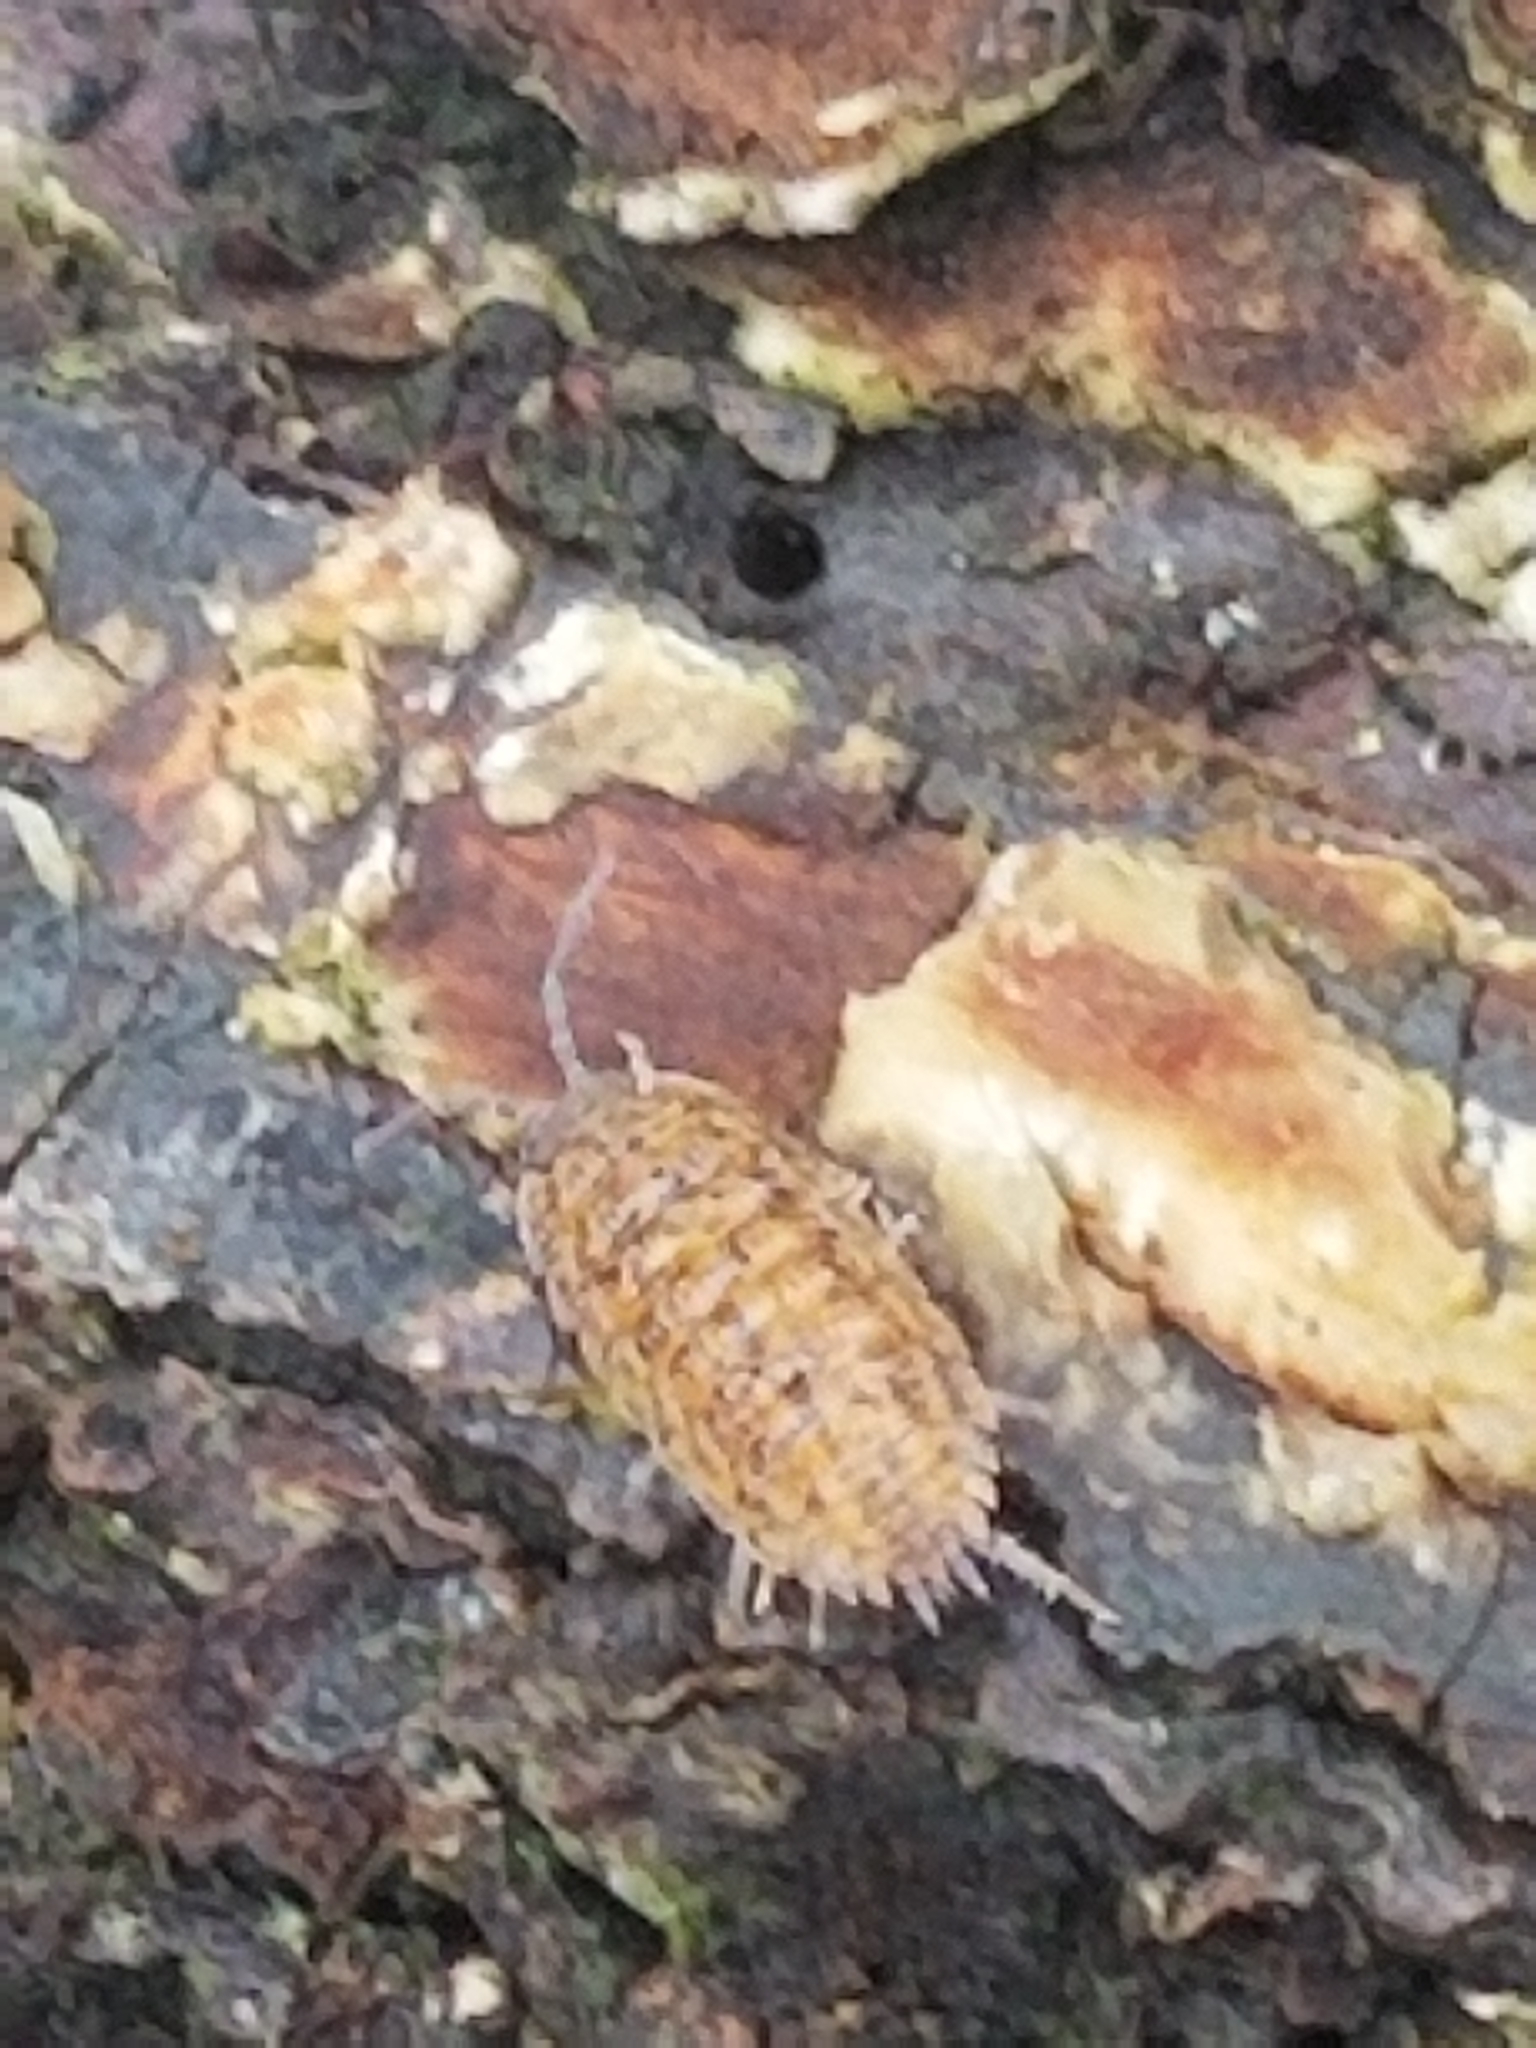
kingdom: Animalia
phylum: Arthropoda
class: Malacostraca
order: Isopoda
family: Trachelipodidae
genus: Trachelipus
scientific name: Trachelipus rathkii
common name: Isopod
